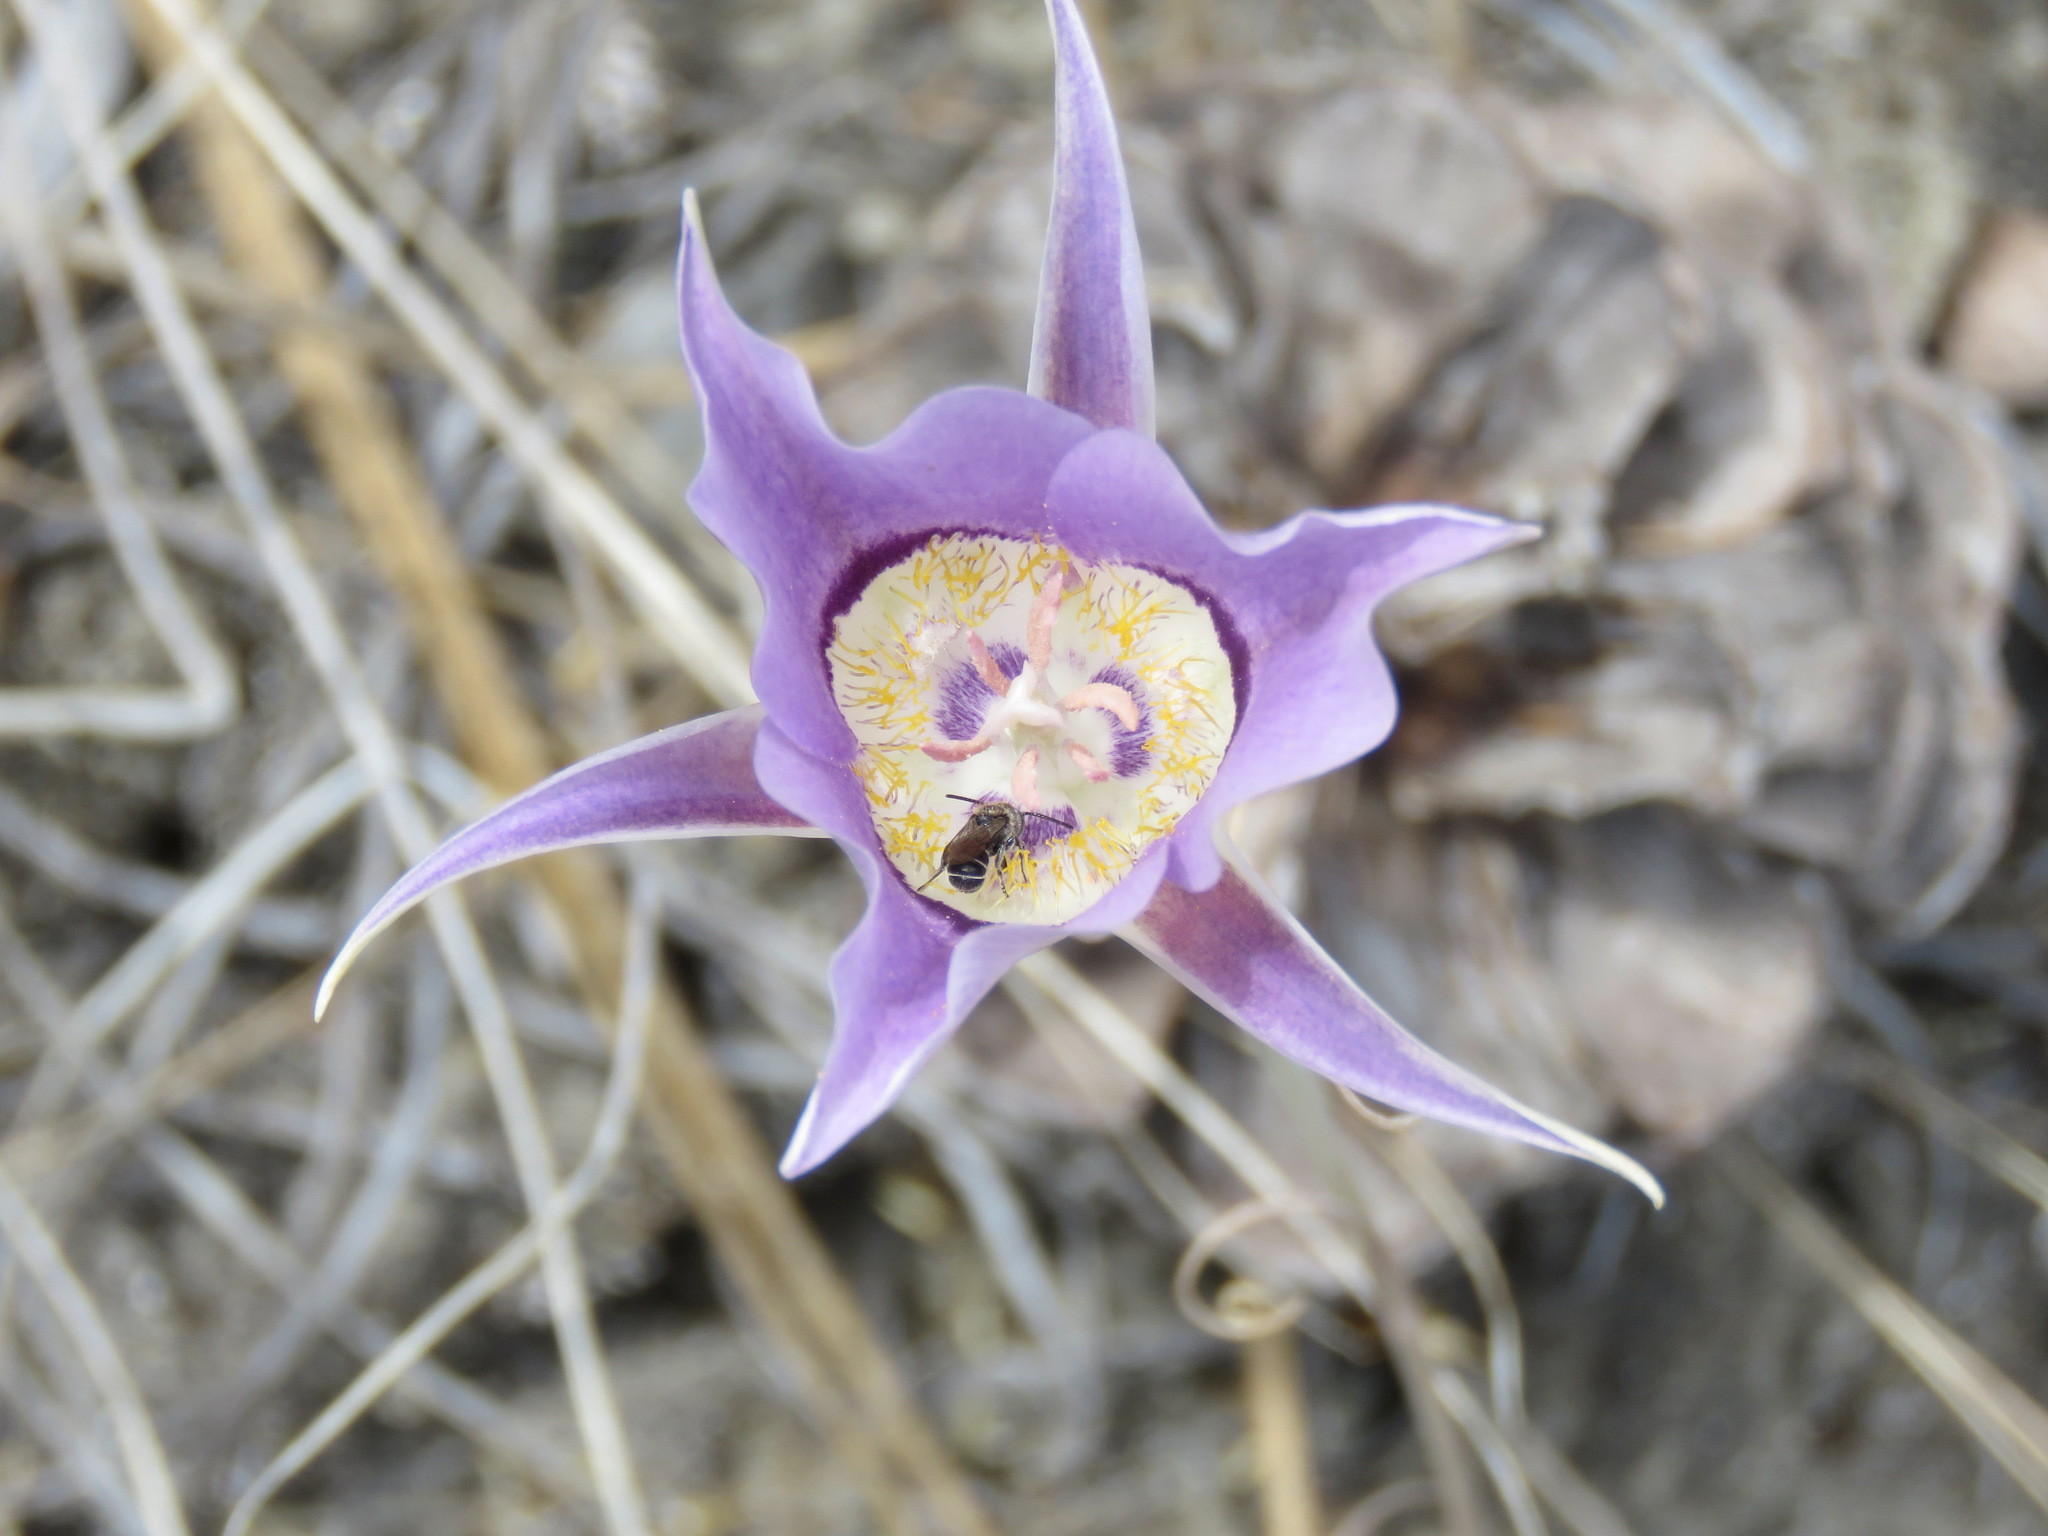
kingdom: Plantae
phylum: Tracheophyta
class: Liliopsida
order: Liliales
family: Liliaceae
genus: Calochortus
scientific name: Calochortus macrocarpus
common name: Green-band mariposa lily
